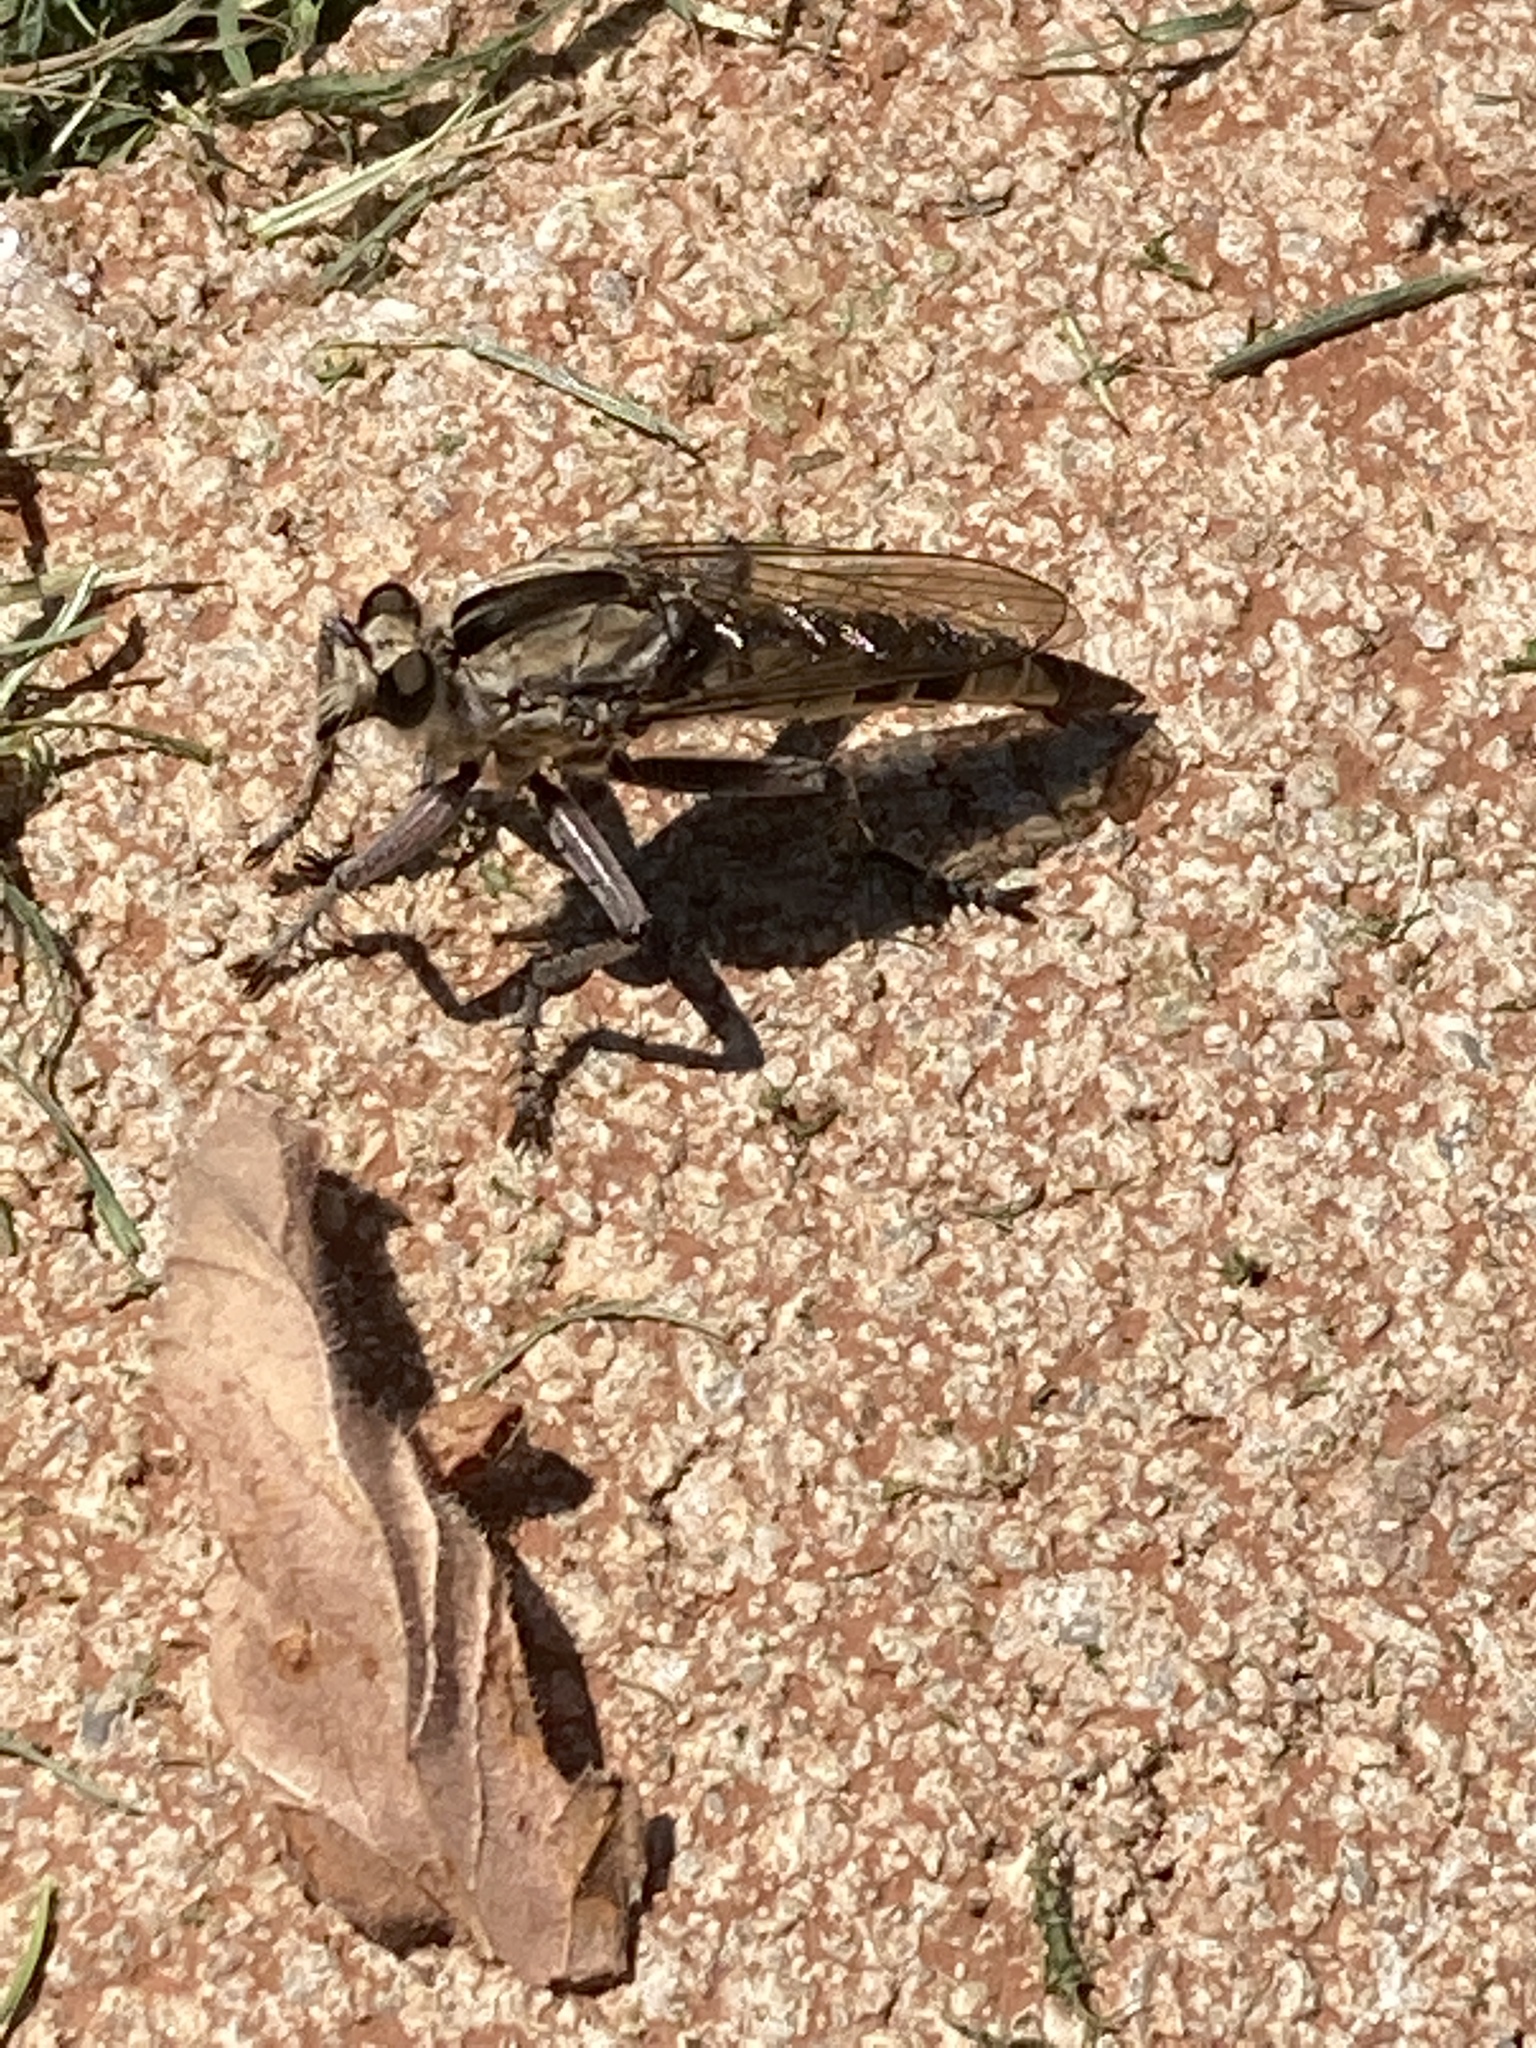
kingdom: Animalia
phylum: Arthropoda
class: Insecta
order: Diptera
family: Asilidae
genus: Triorla
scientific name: Triorla interrupta
